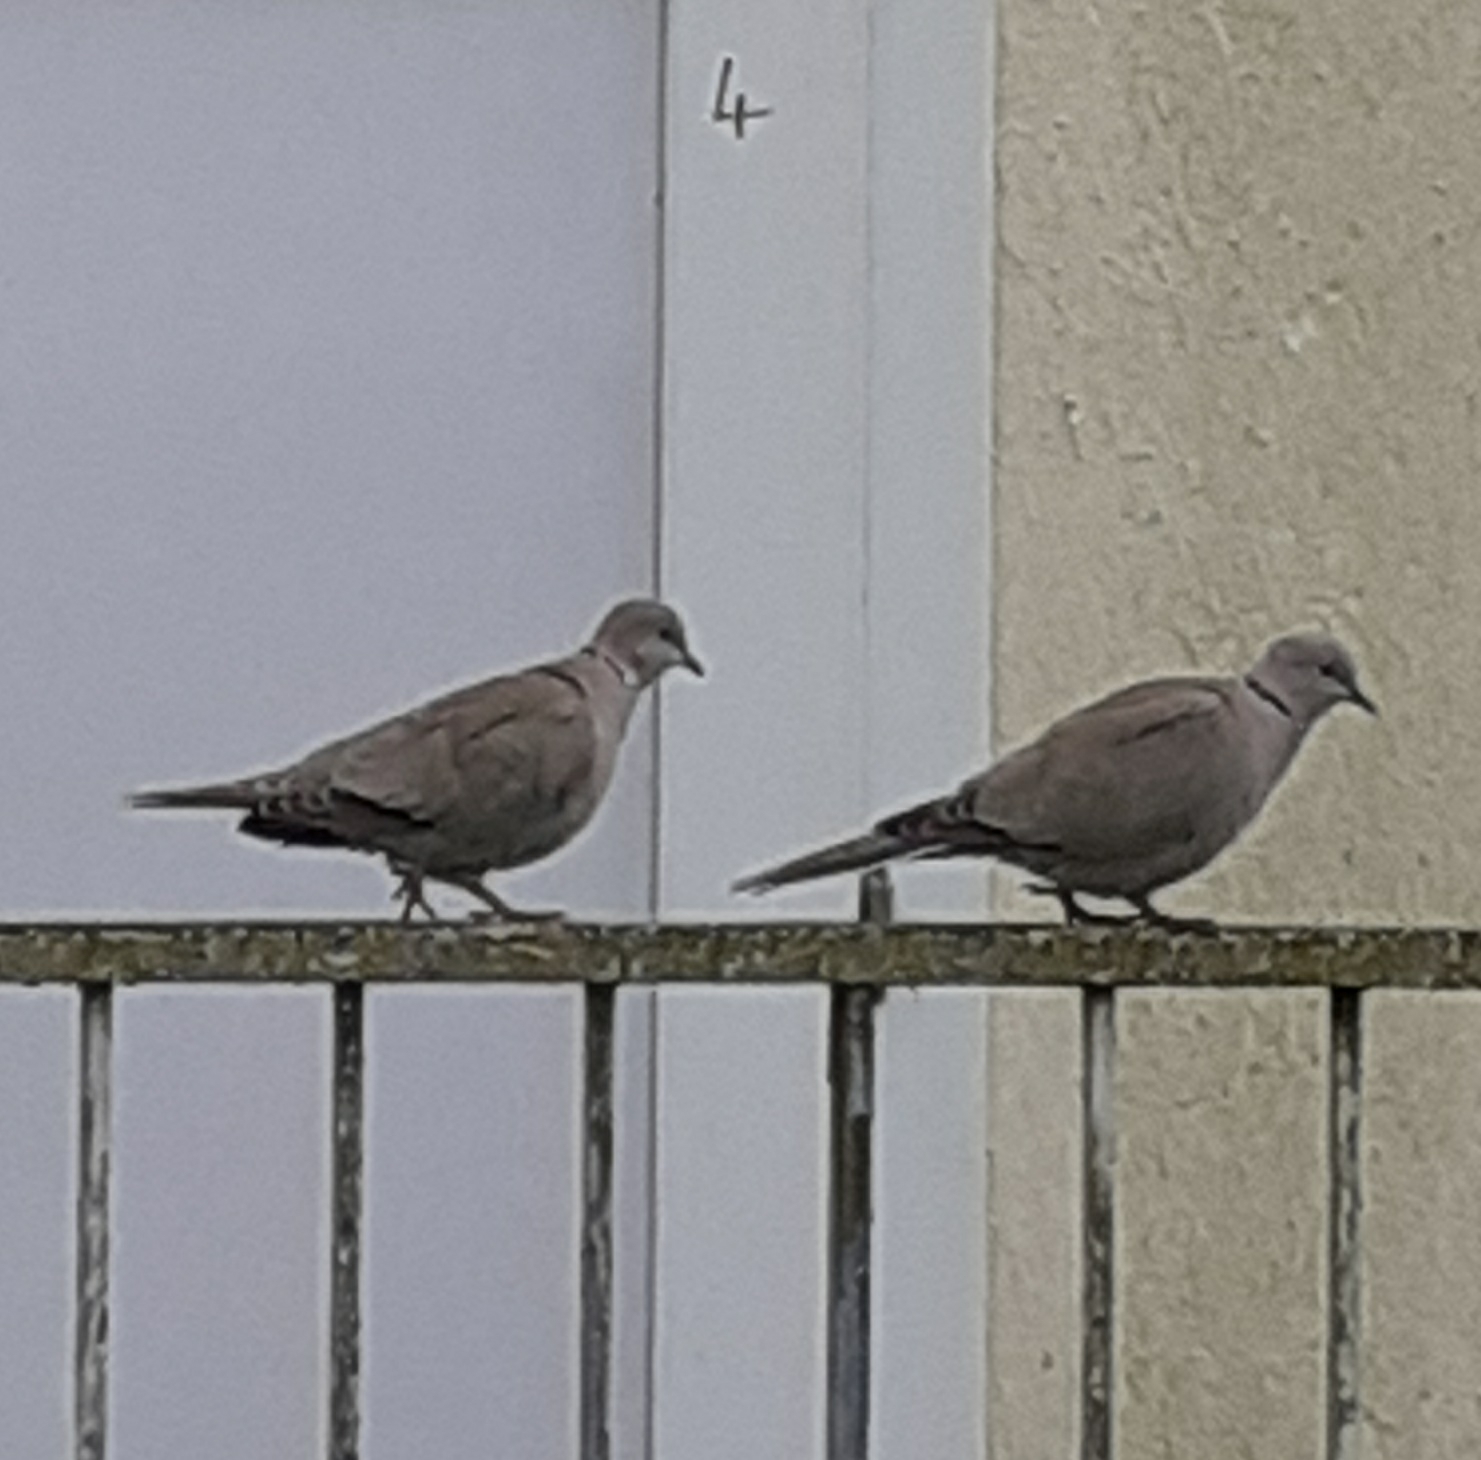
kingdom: Animalia
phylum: Chordata
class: Aves
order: Columbiformes
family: Columbidae
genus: Streptopelia
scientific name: Streptopelia decaocto
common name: Eurasian collared dove
